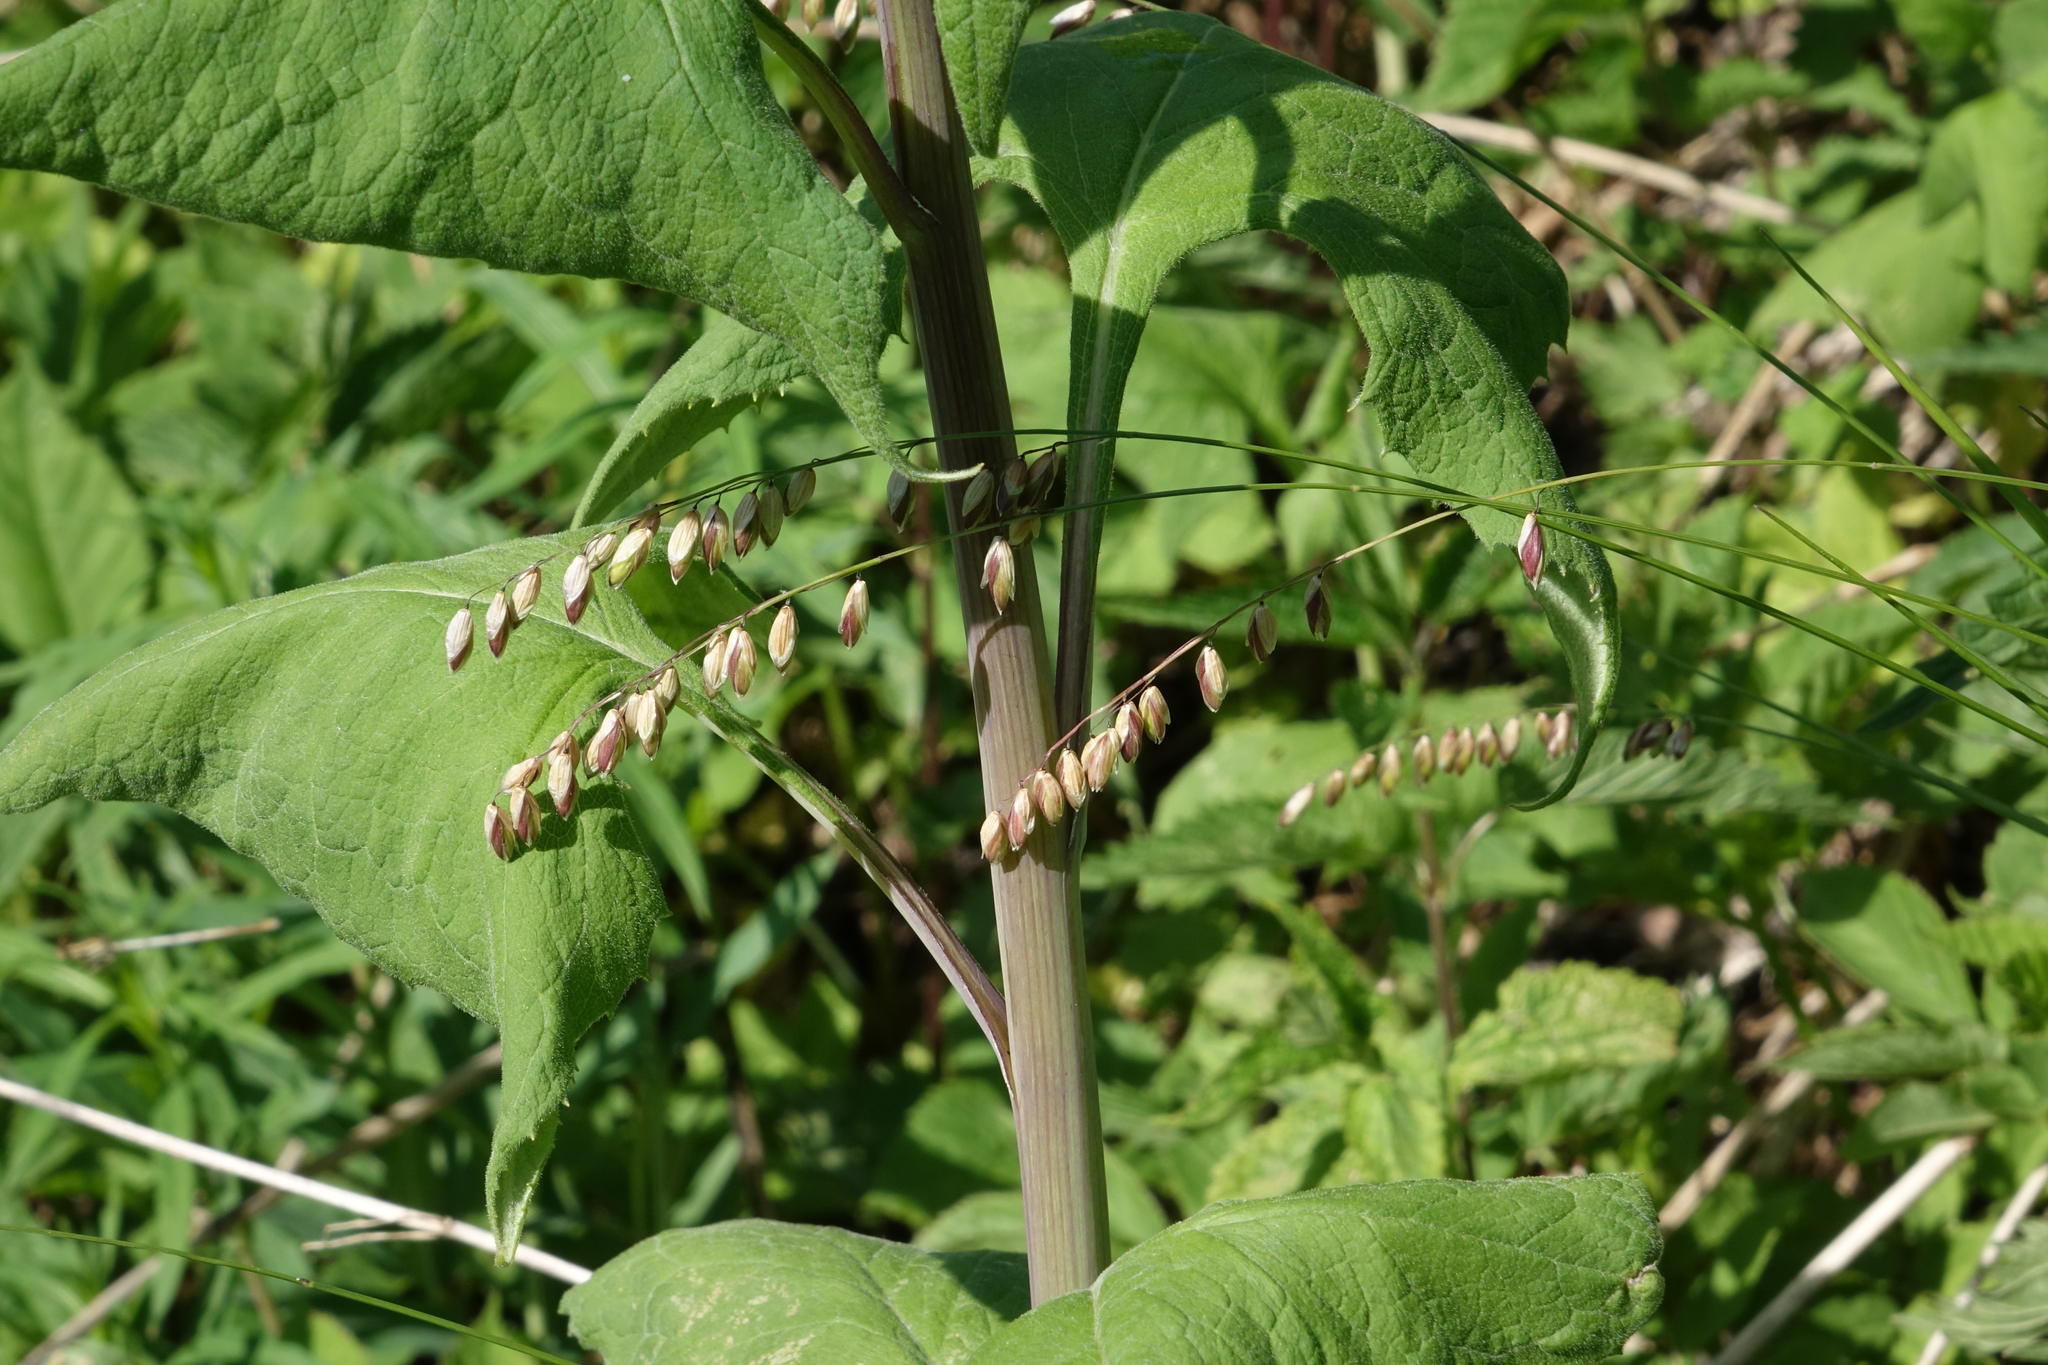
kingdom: Plantae
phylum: Tracheophyta
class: Liliopsida
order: Poales
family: Poaceae
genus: Melica
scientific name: Melica nutans
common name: Mountain melick
